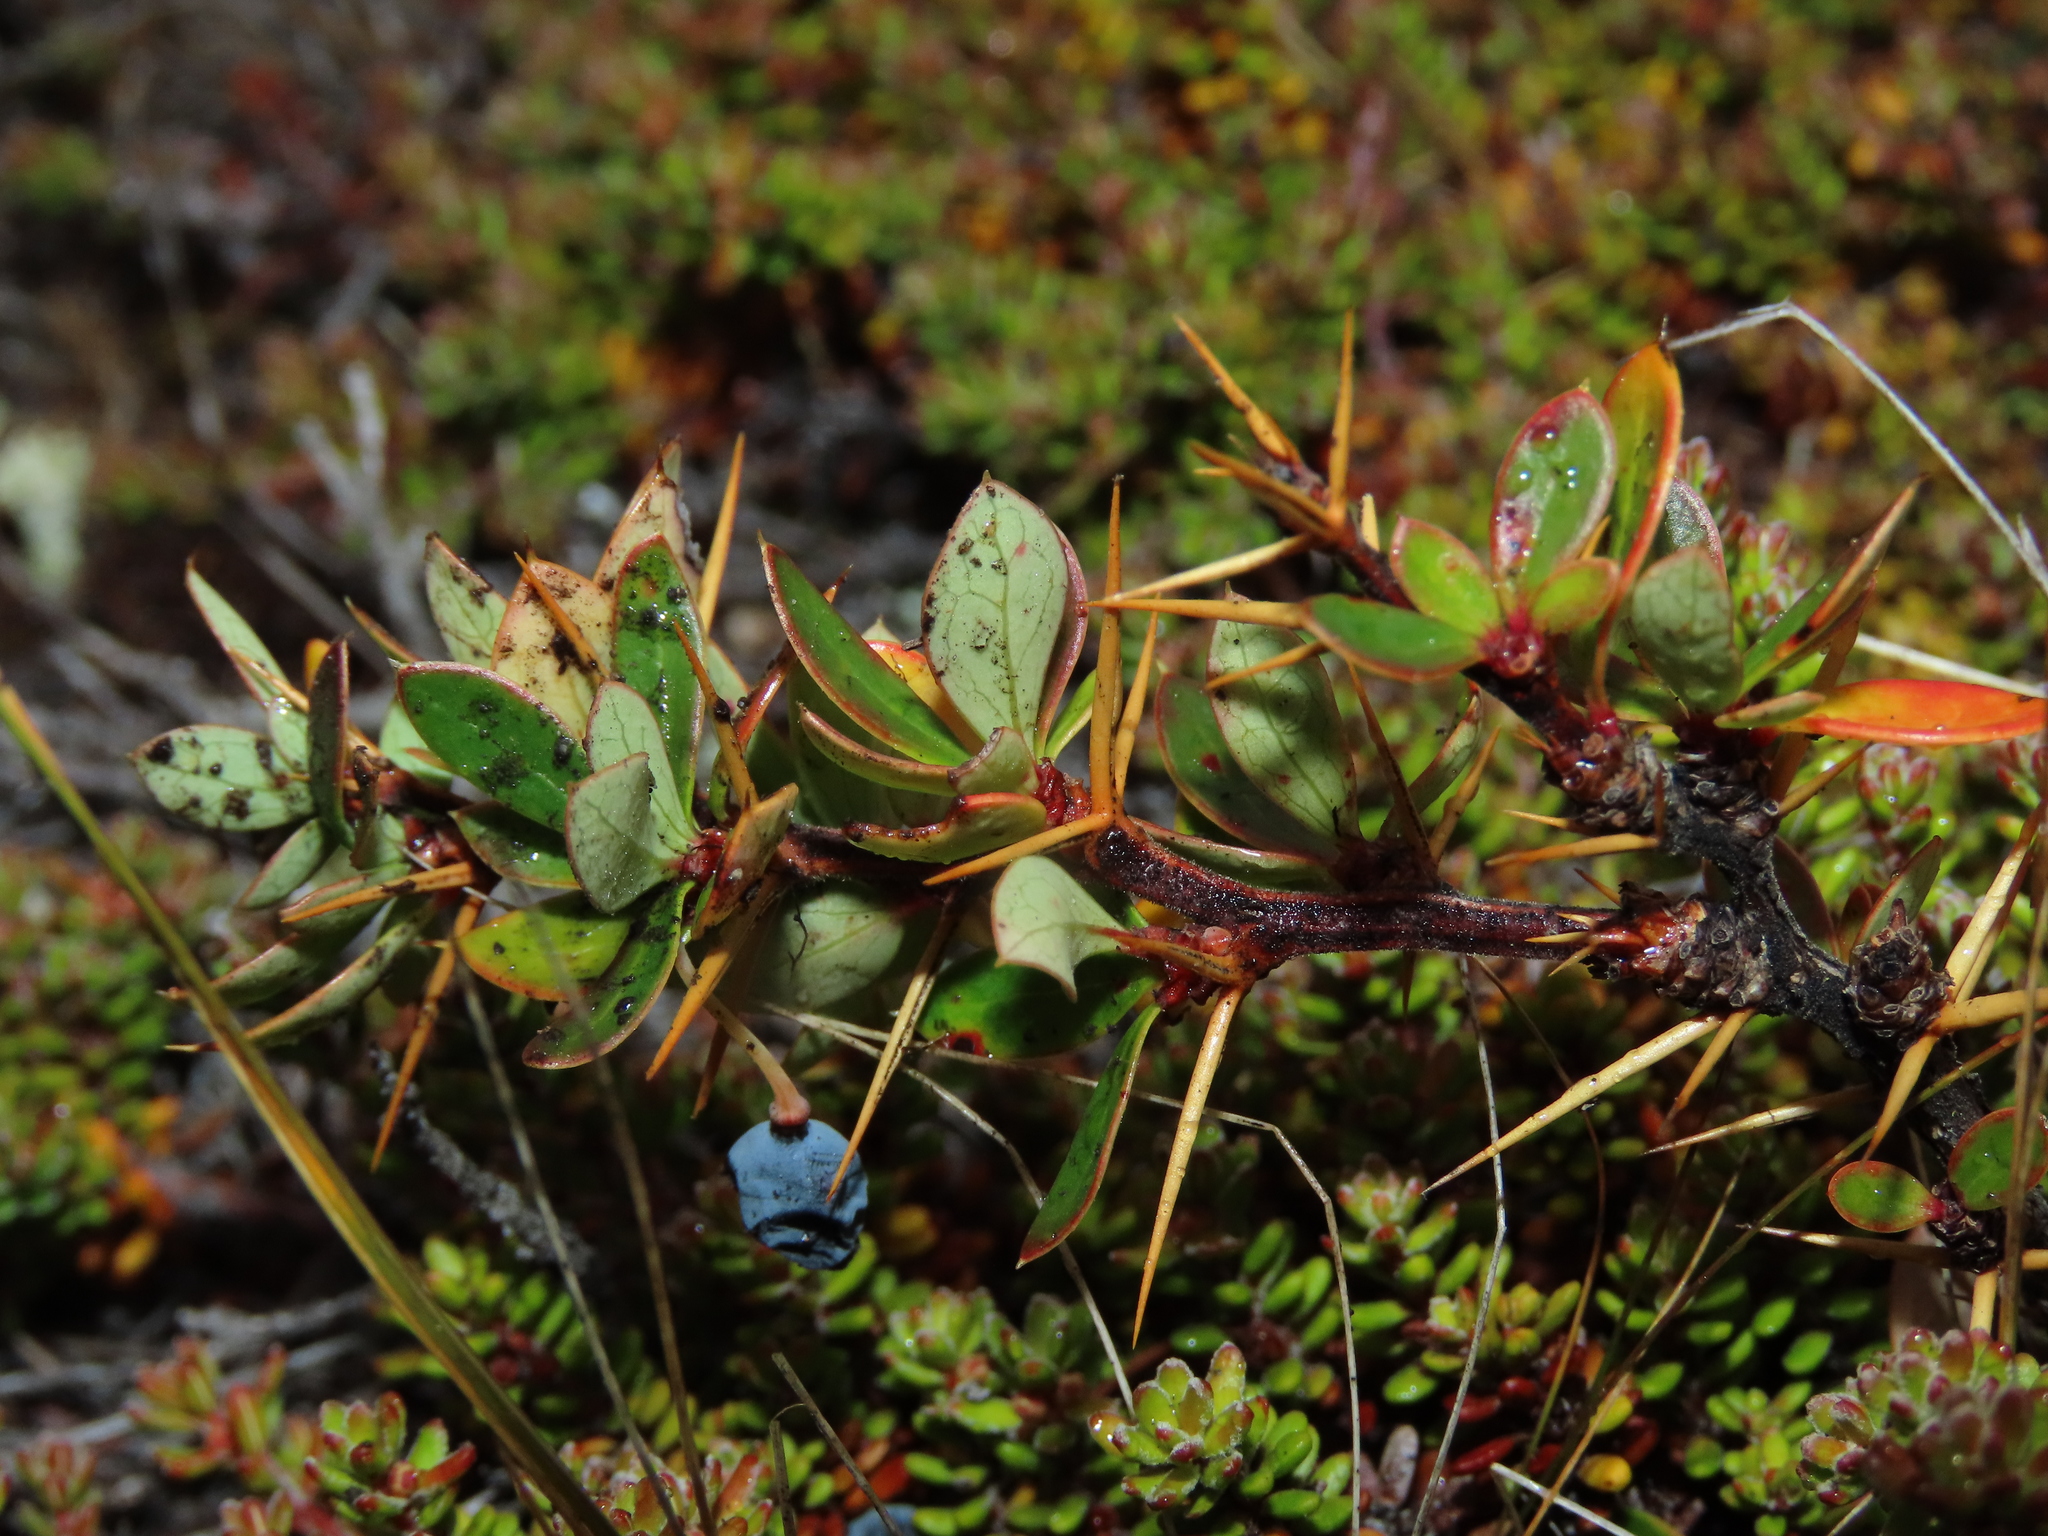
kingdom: Plantae
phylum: Tracheophyta
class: Magnoliopsida
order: Ranunculales
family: Berberidaceae
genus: Berberis
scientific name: Berberis microphylla
